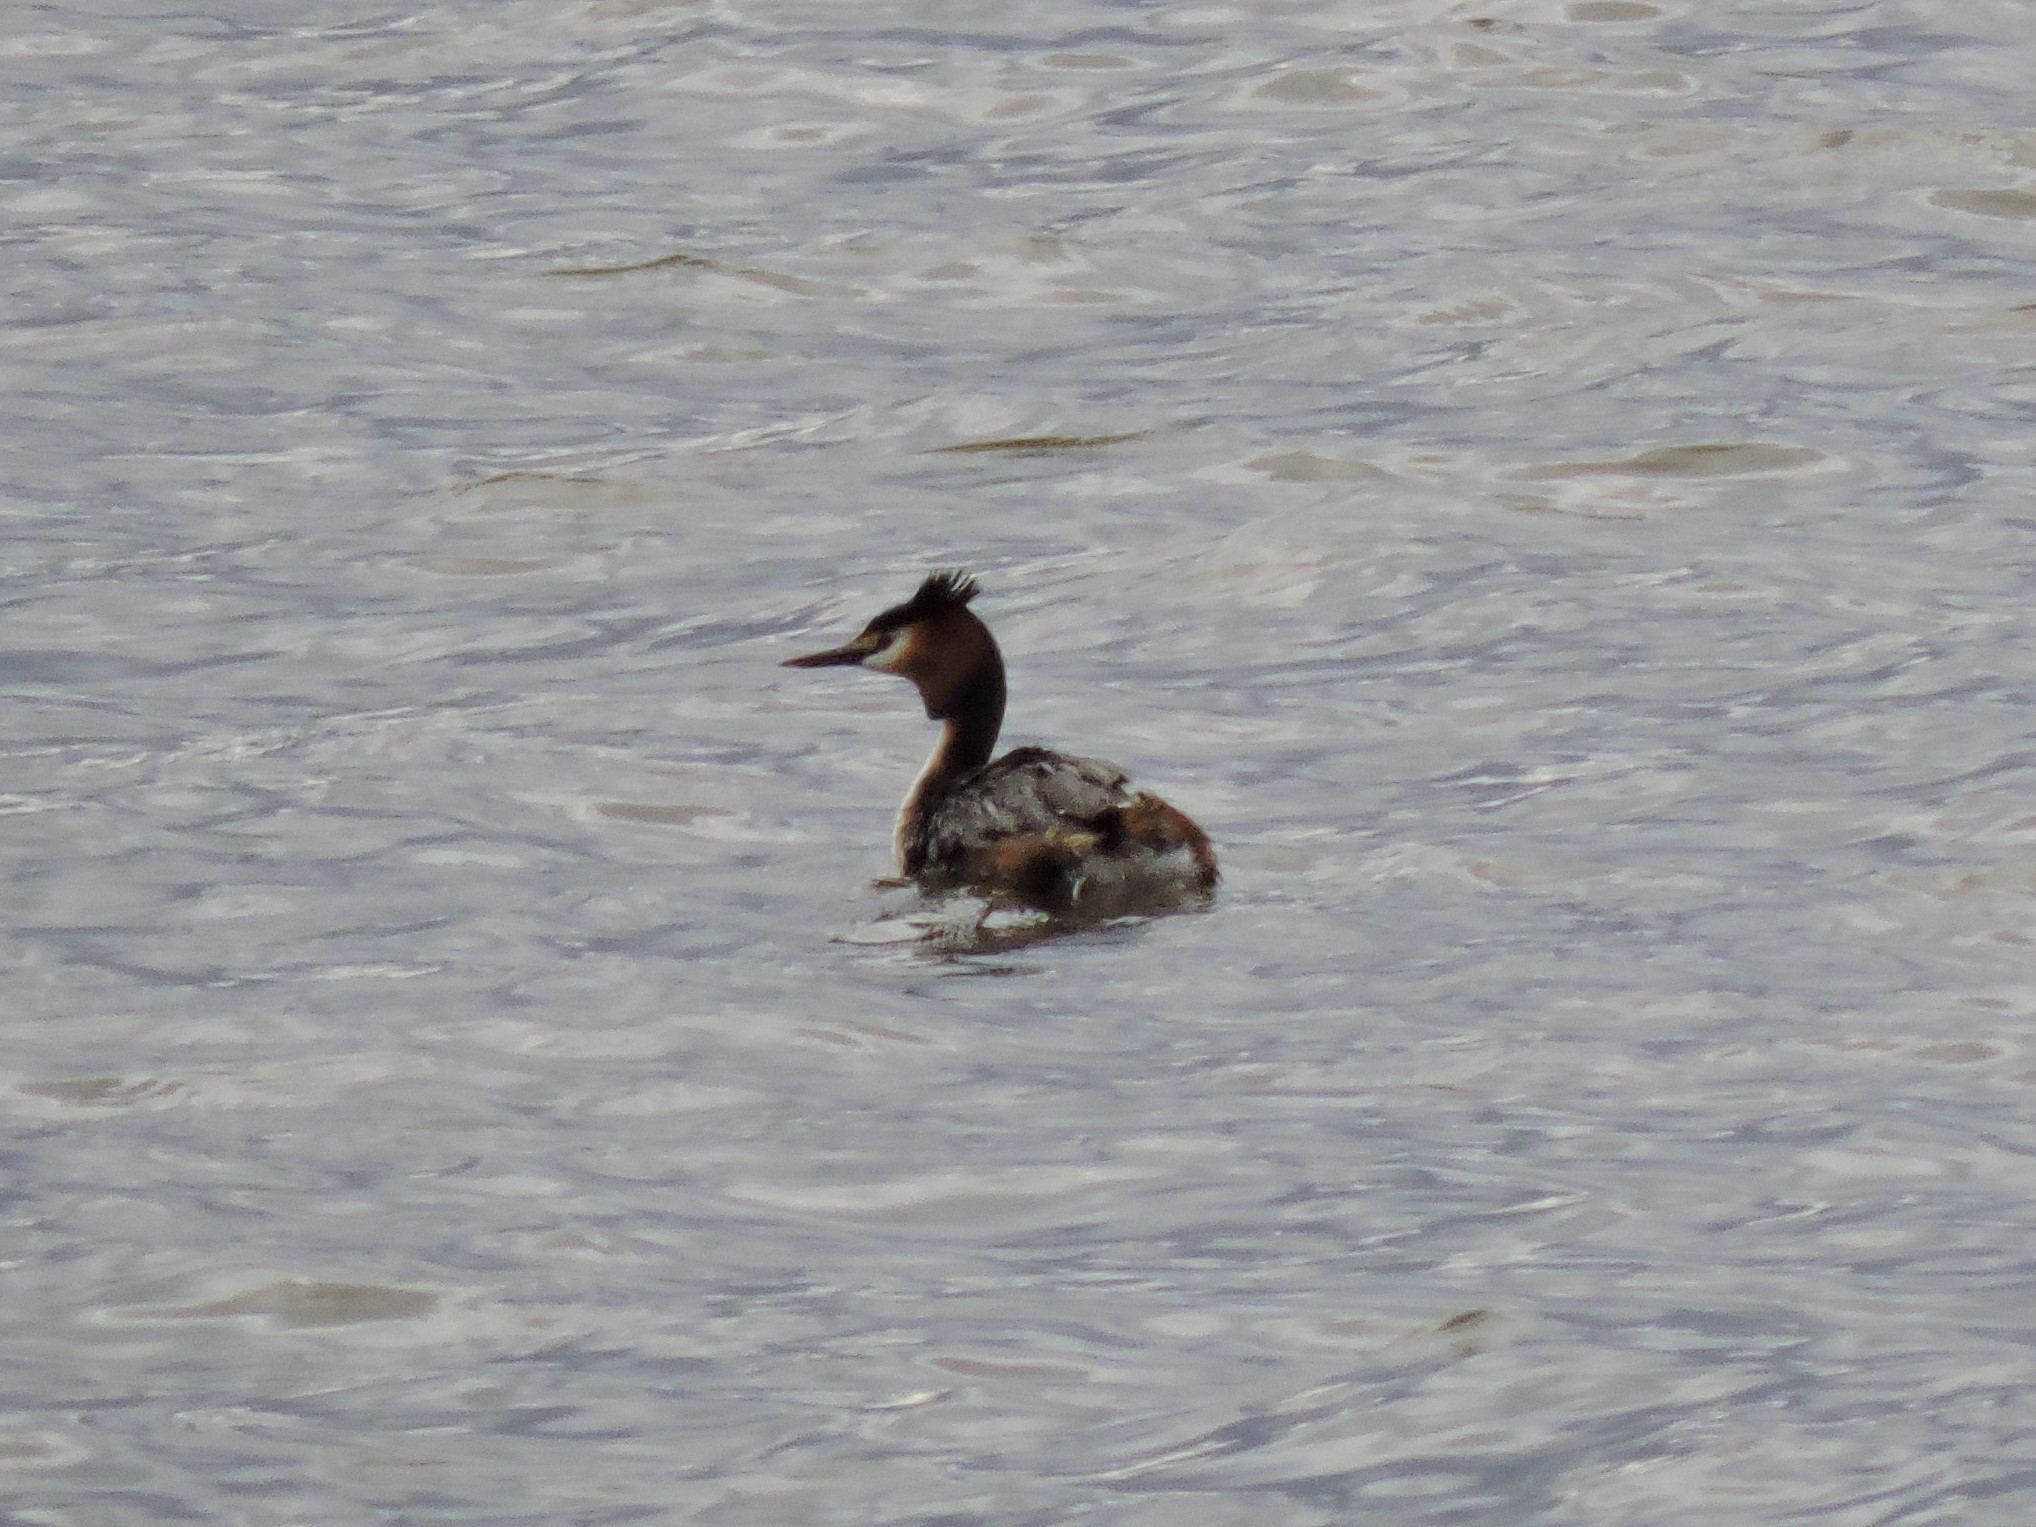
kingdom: Animalia
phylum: Chordata
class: Aves
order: Podicipediformes
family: Podicipedidae
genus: Podiceps
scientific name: Podiceps cristatus
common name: Great crested grebe
